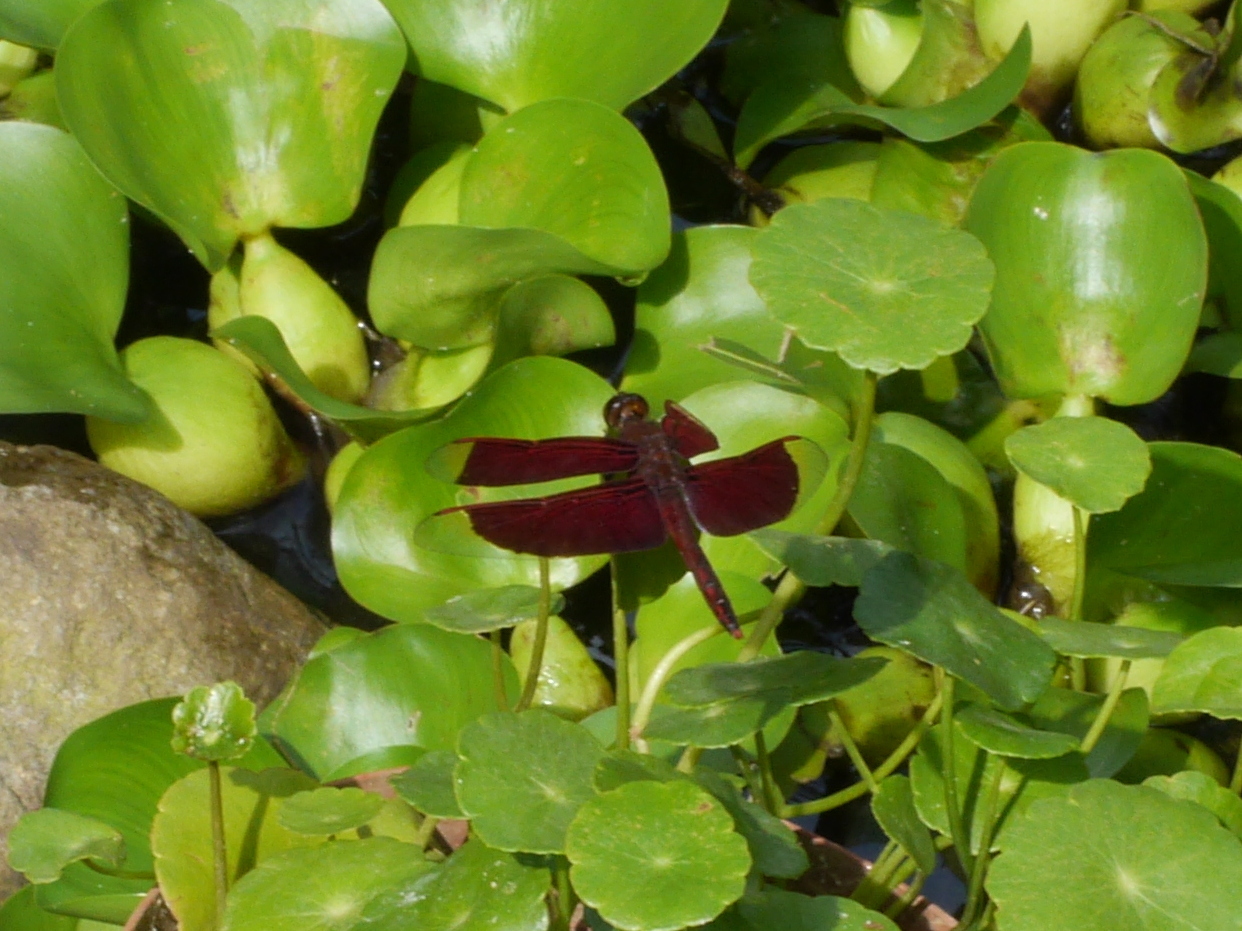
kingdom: Animalia
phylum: Arthropoda
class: Insecta
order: Odonata
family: Libellulidae
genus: Neurothemis
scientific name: Neurothemis ramburii
